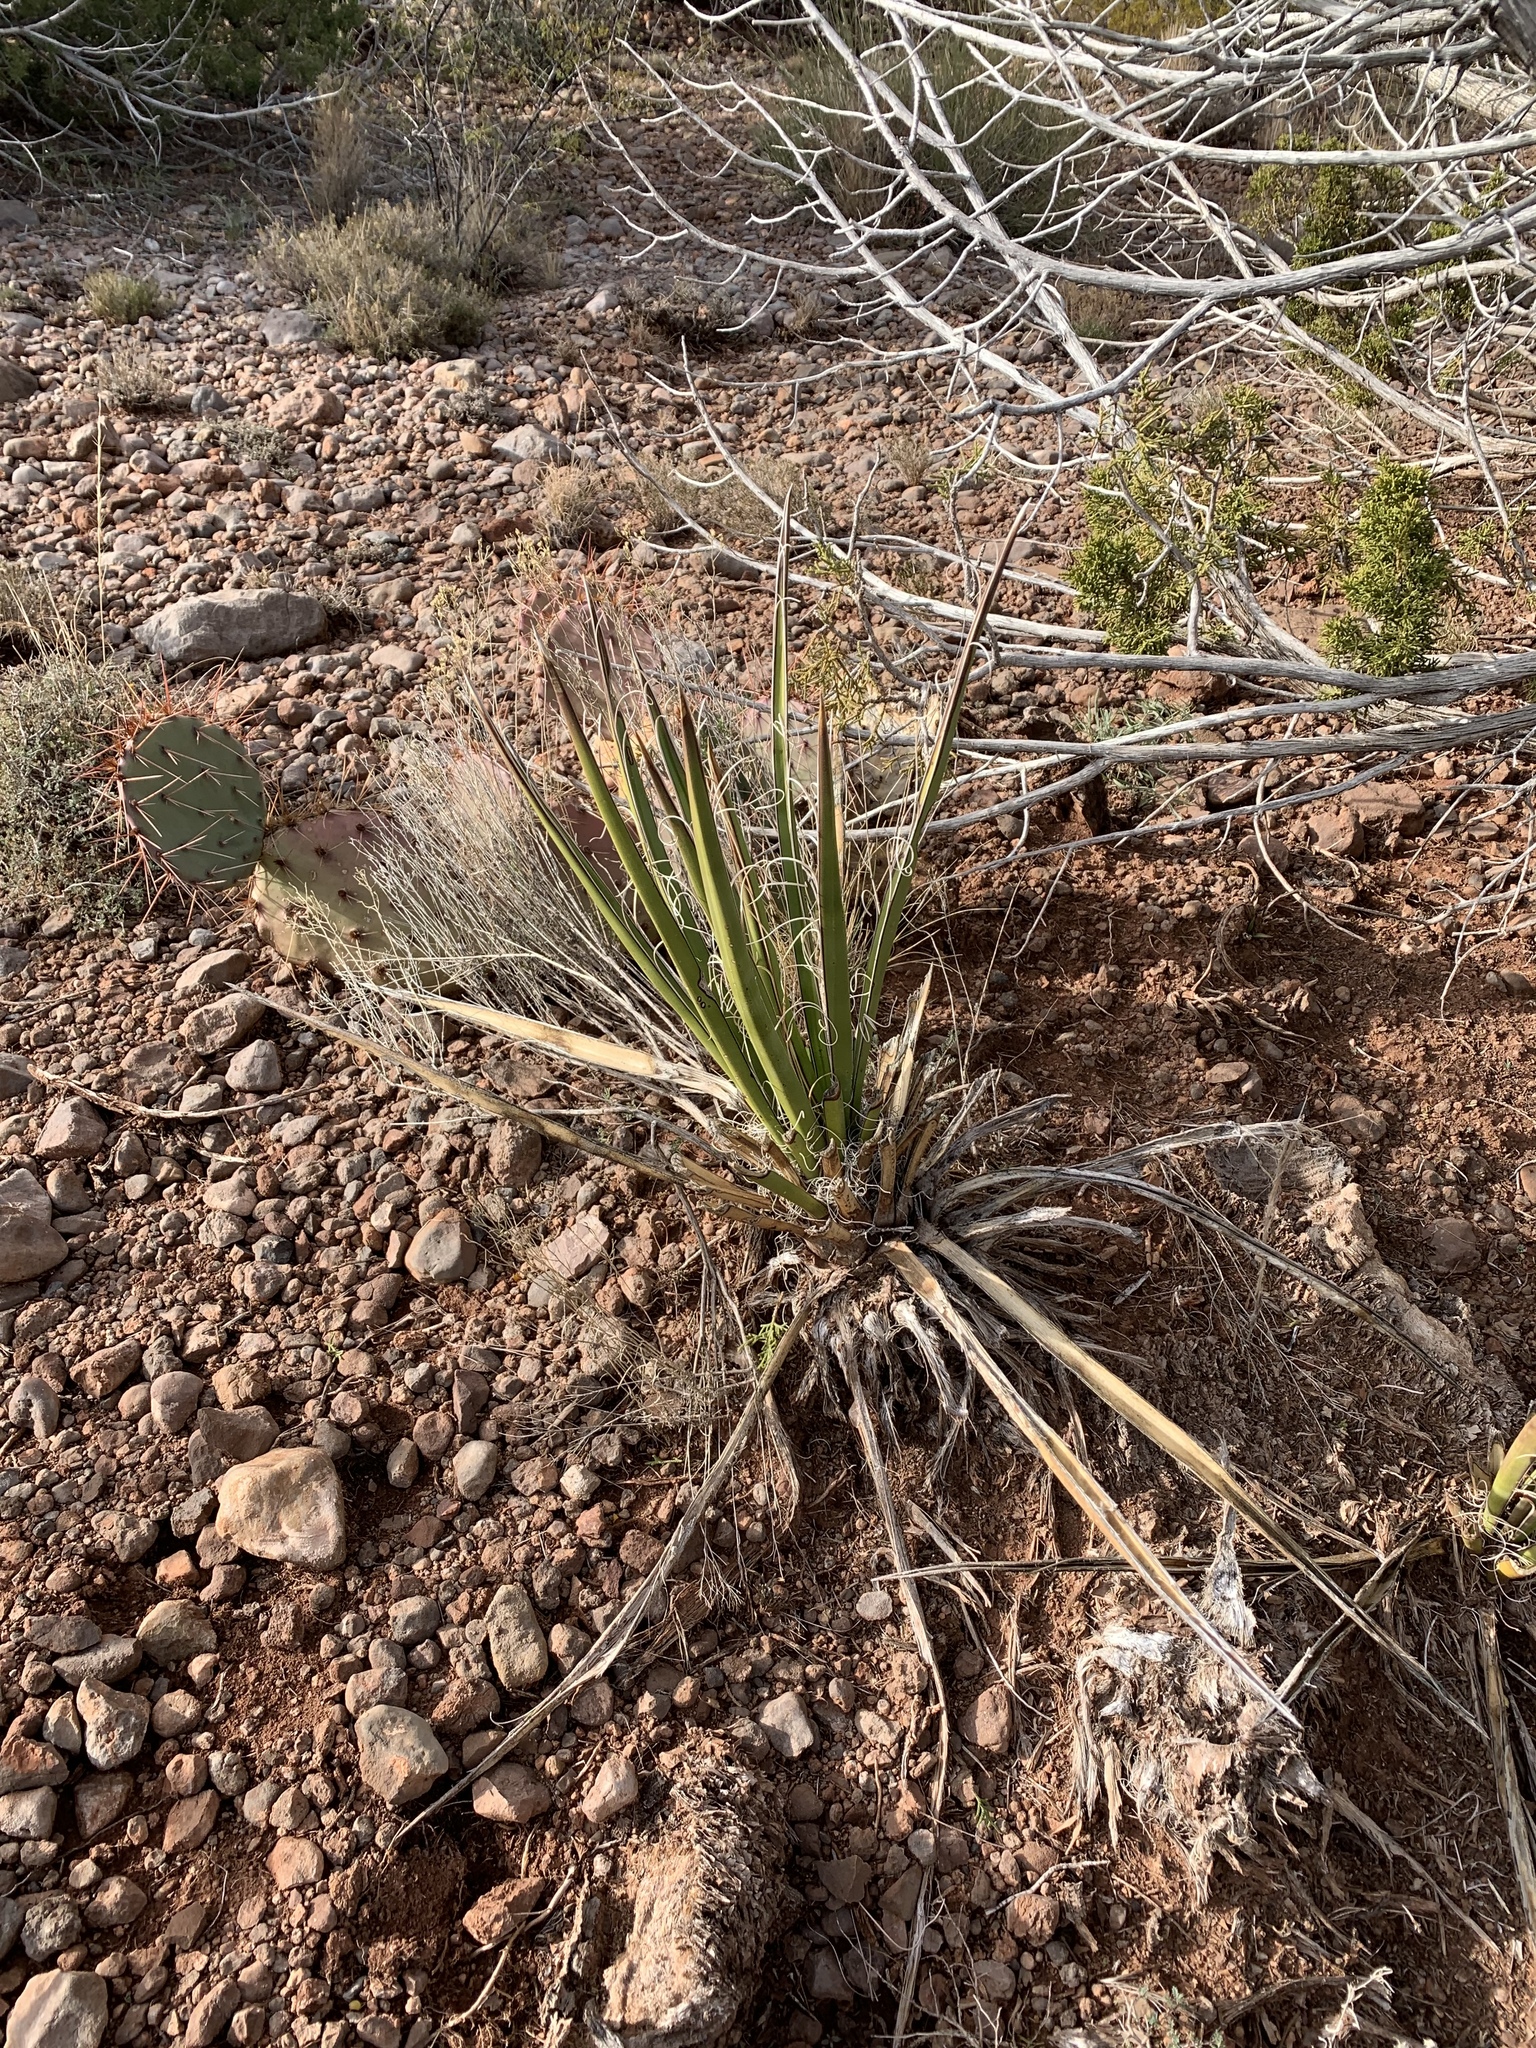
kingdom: Plantae
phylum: Tracheophyta
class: Liliopsida
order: Asparagales
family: Asparagaceae
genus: Yucca
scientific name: Yucca baccata
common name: Banana yucca
